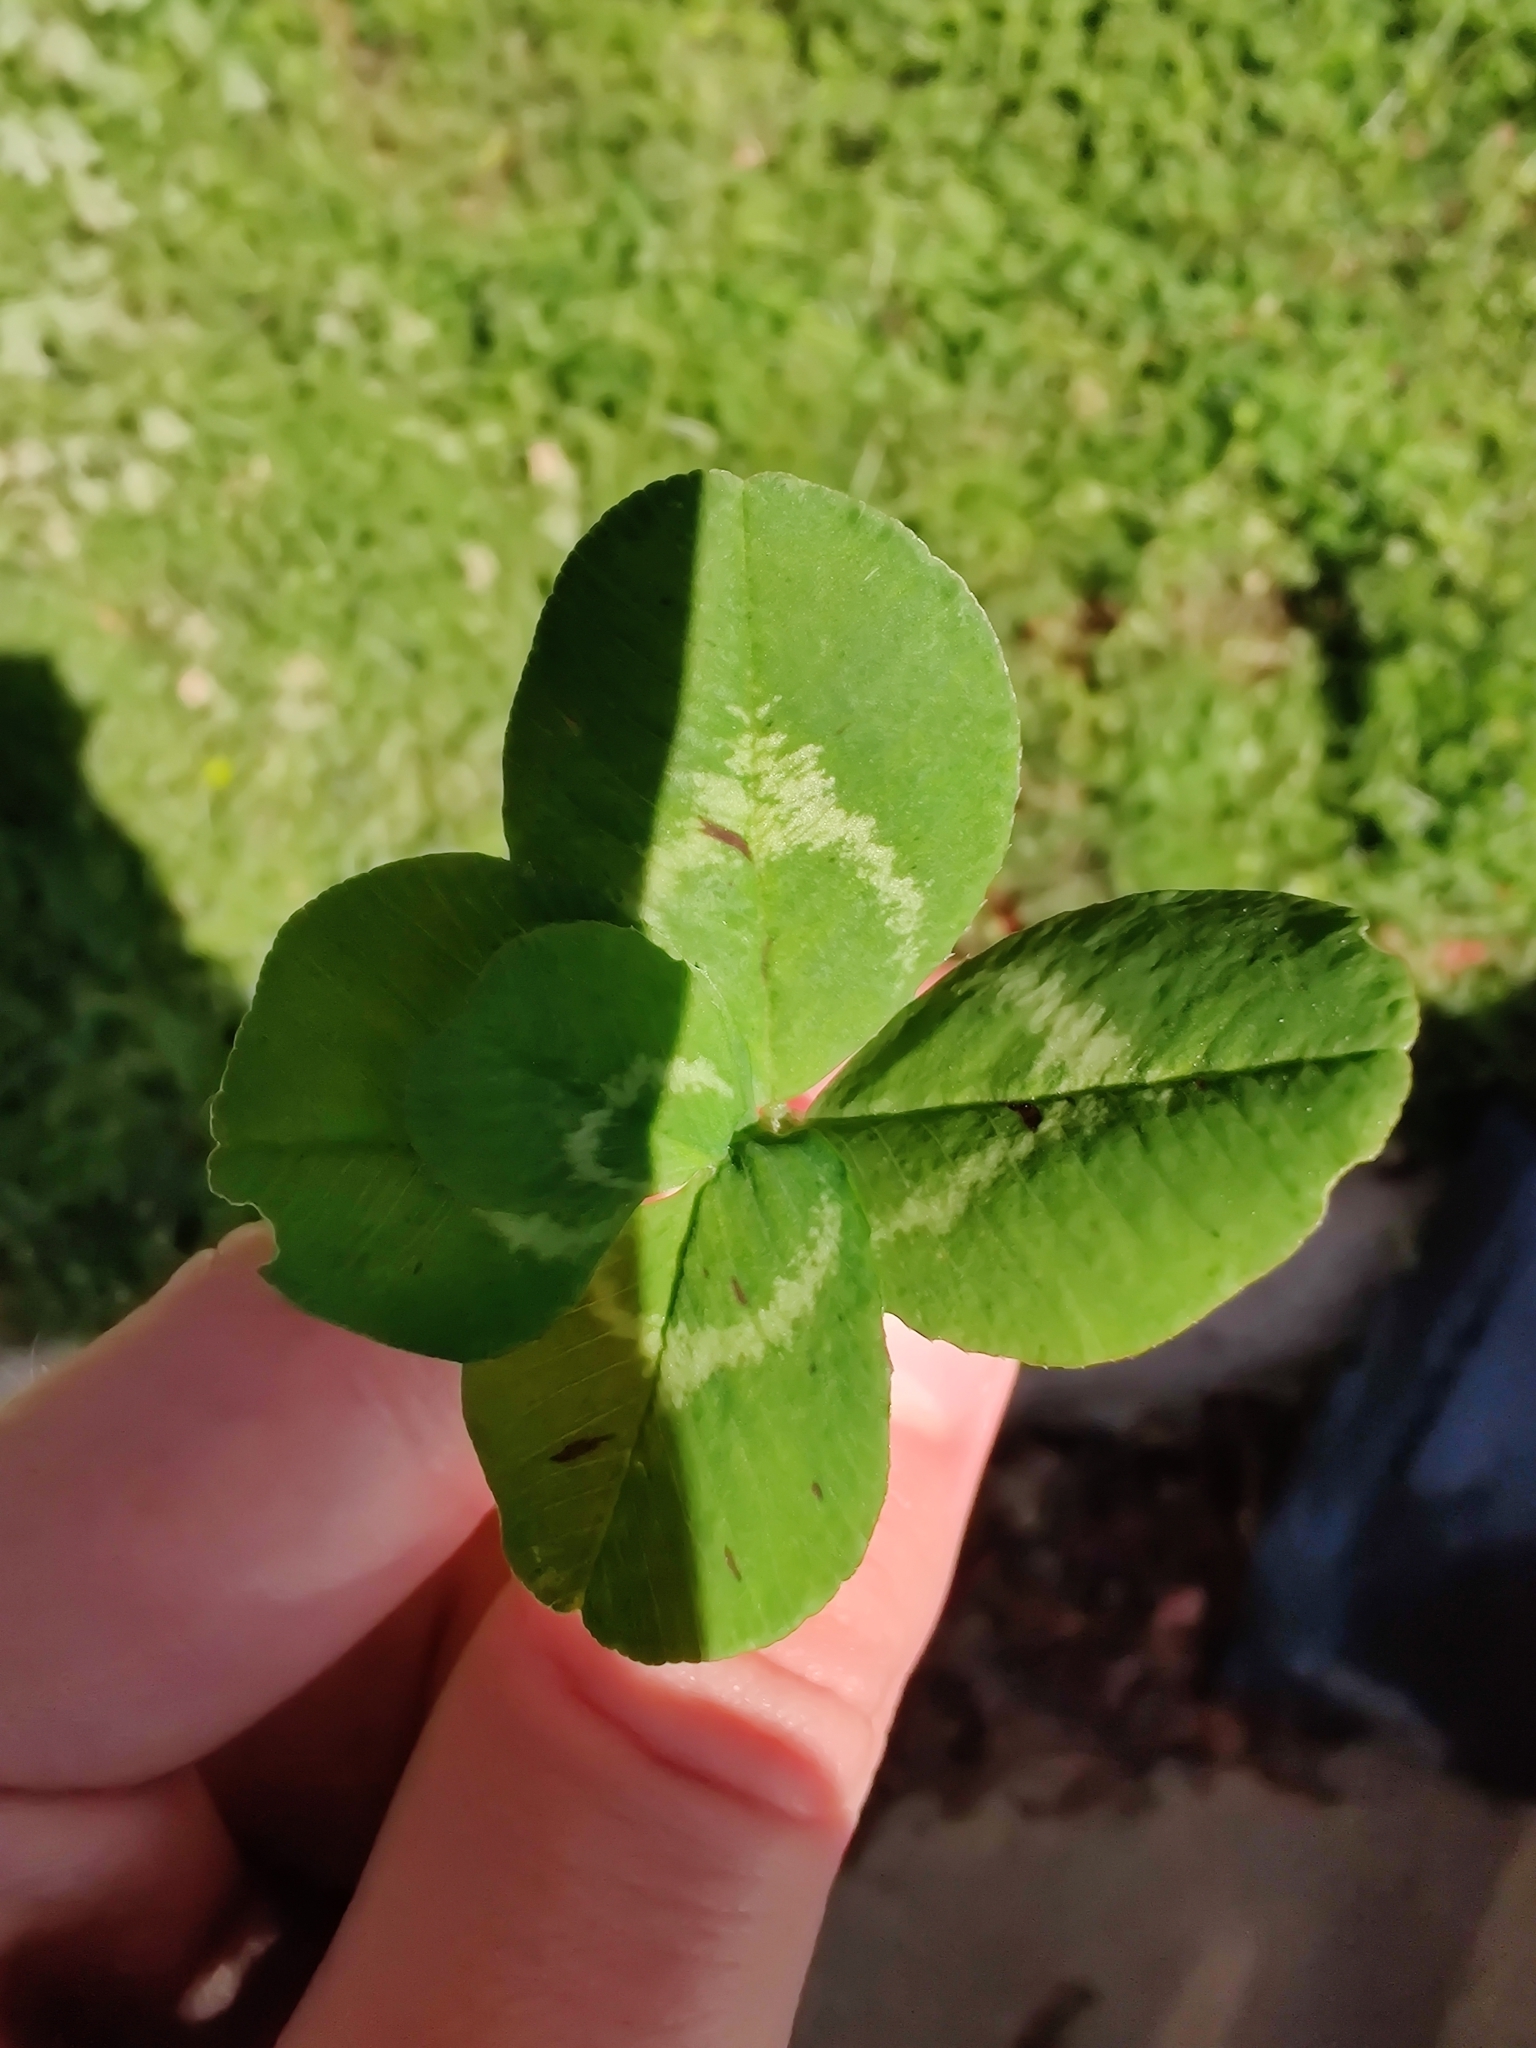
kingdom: Plantae
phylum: Tracheophyta
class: Magnoliopsida
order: Fabales
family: Fabaceae
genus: Trifolium
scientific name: Trifolium repens
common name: White clover
